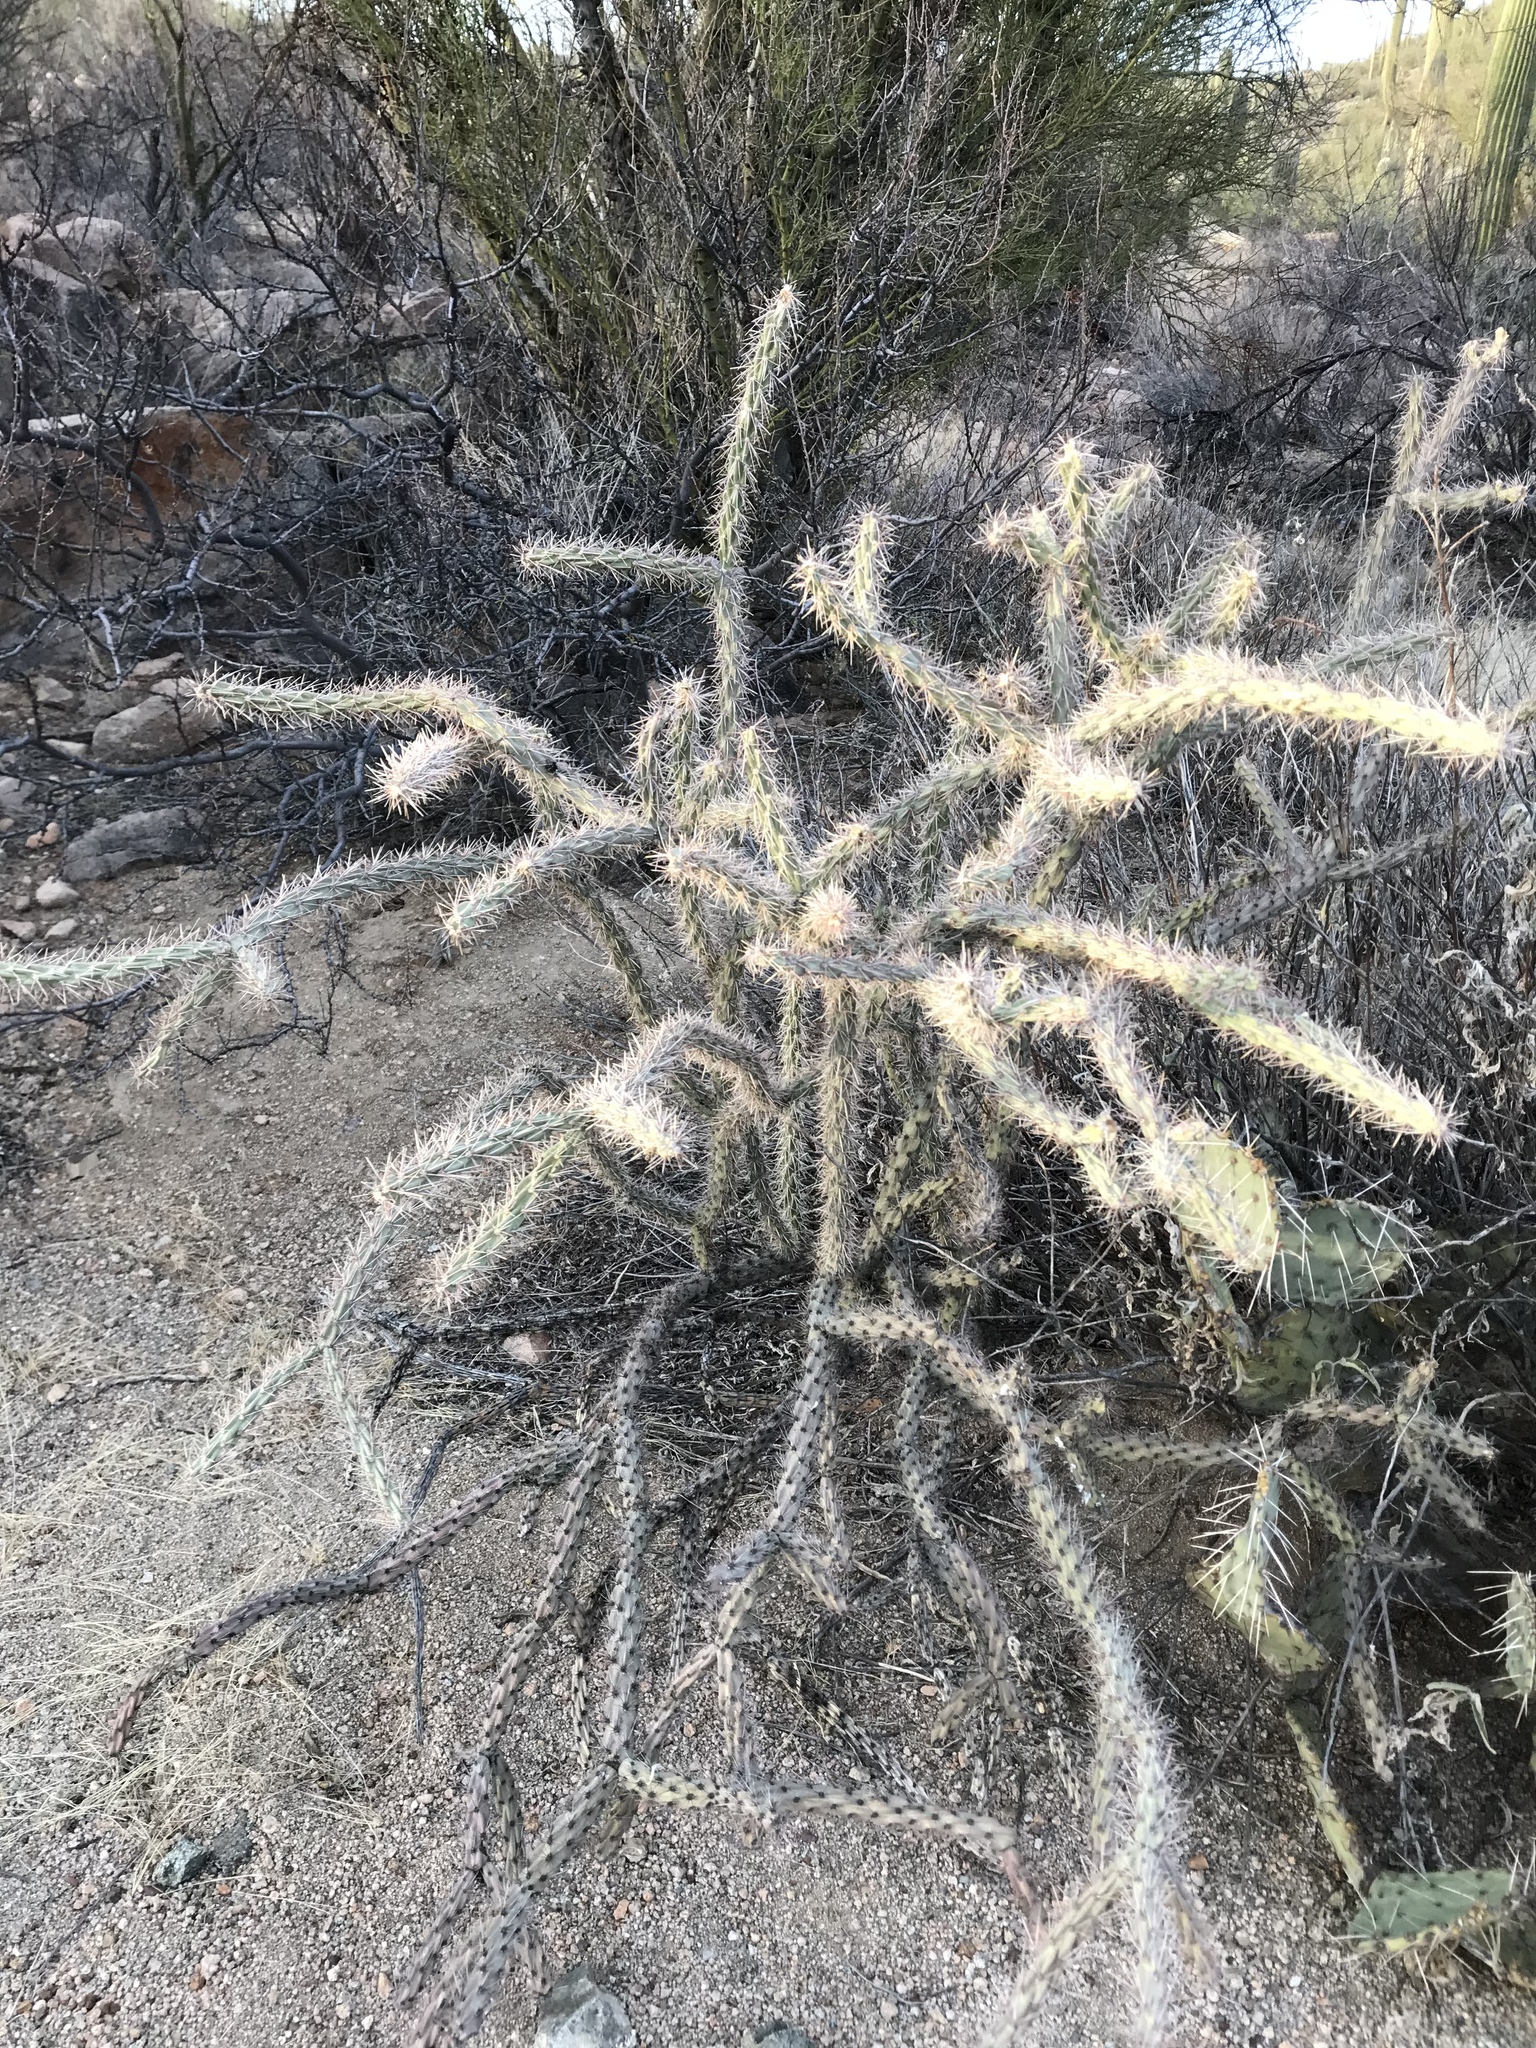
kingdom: Plantae
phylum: Tracheophyta
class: Magnoliopsida
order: Caryophyllales
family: Cactaceae
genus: Cylindropuntia
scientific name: Cylindropuntia thurberi
